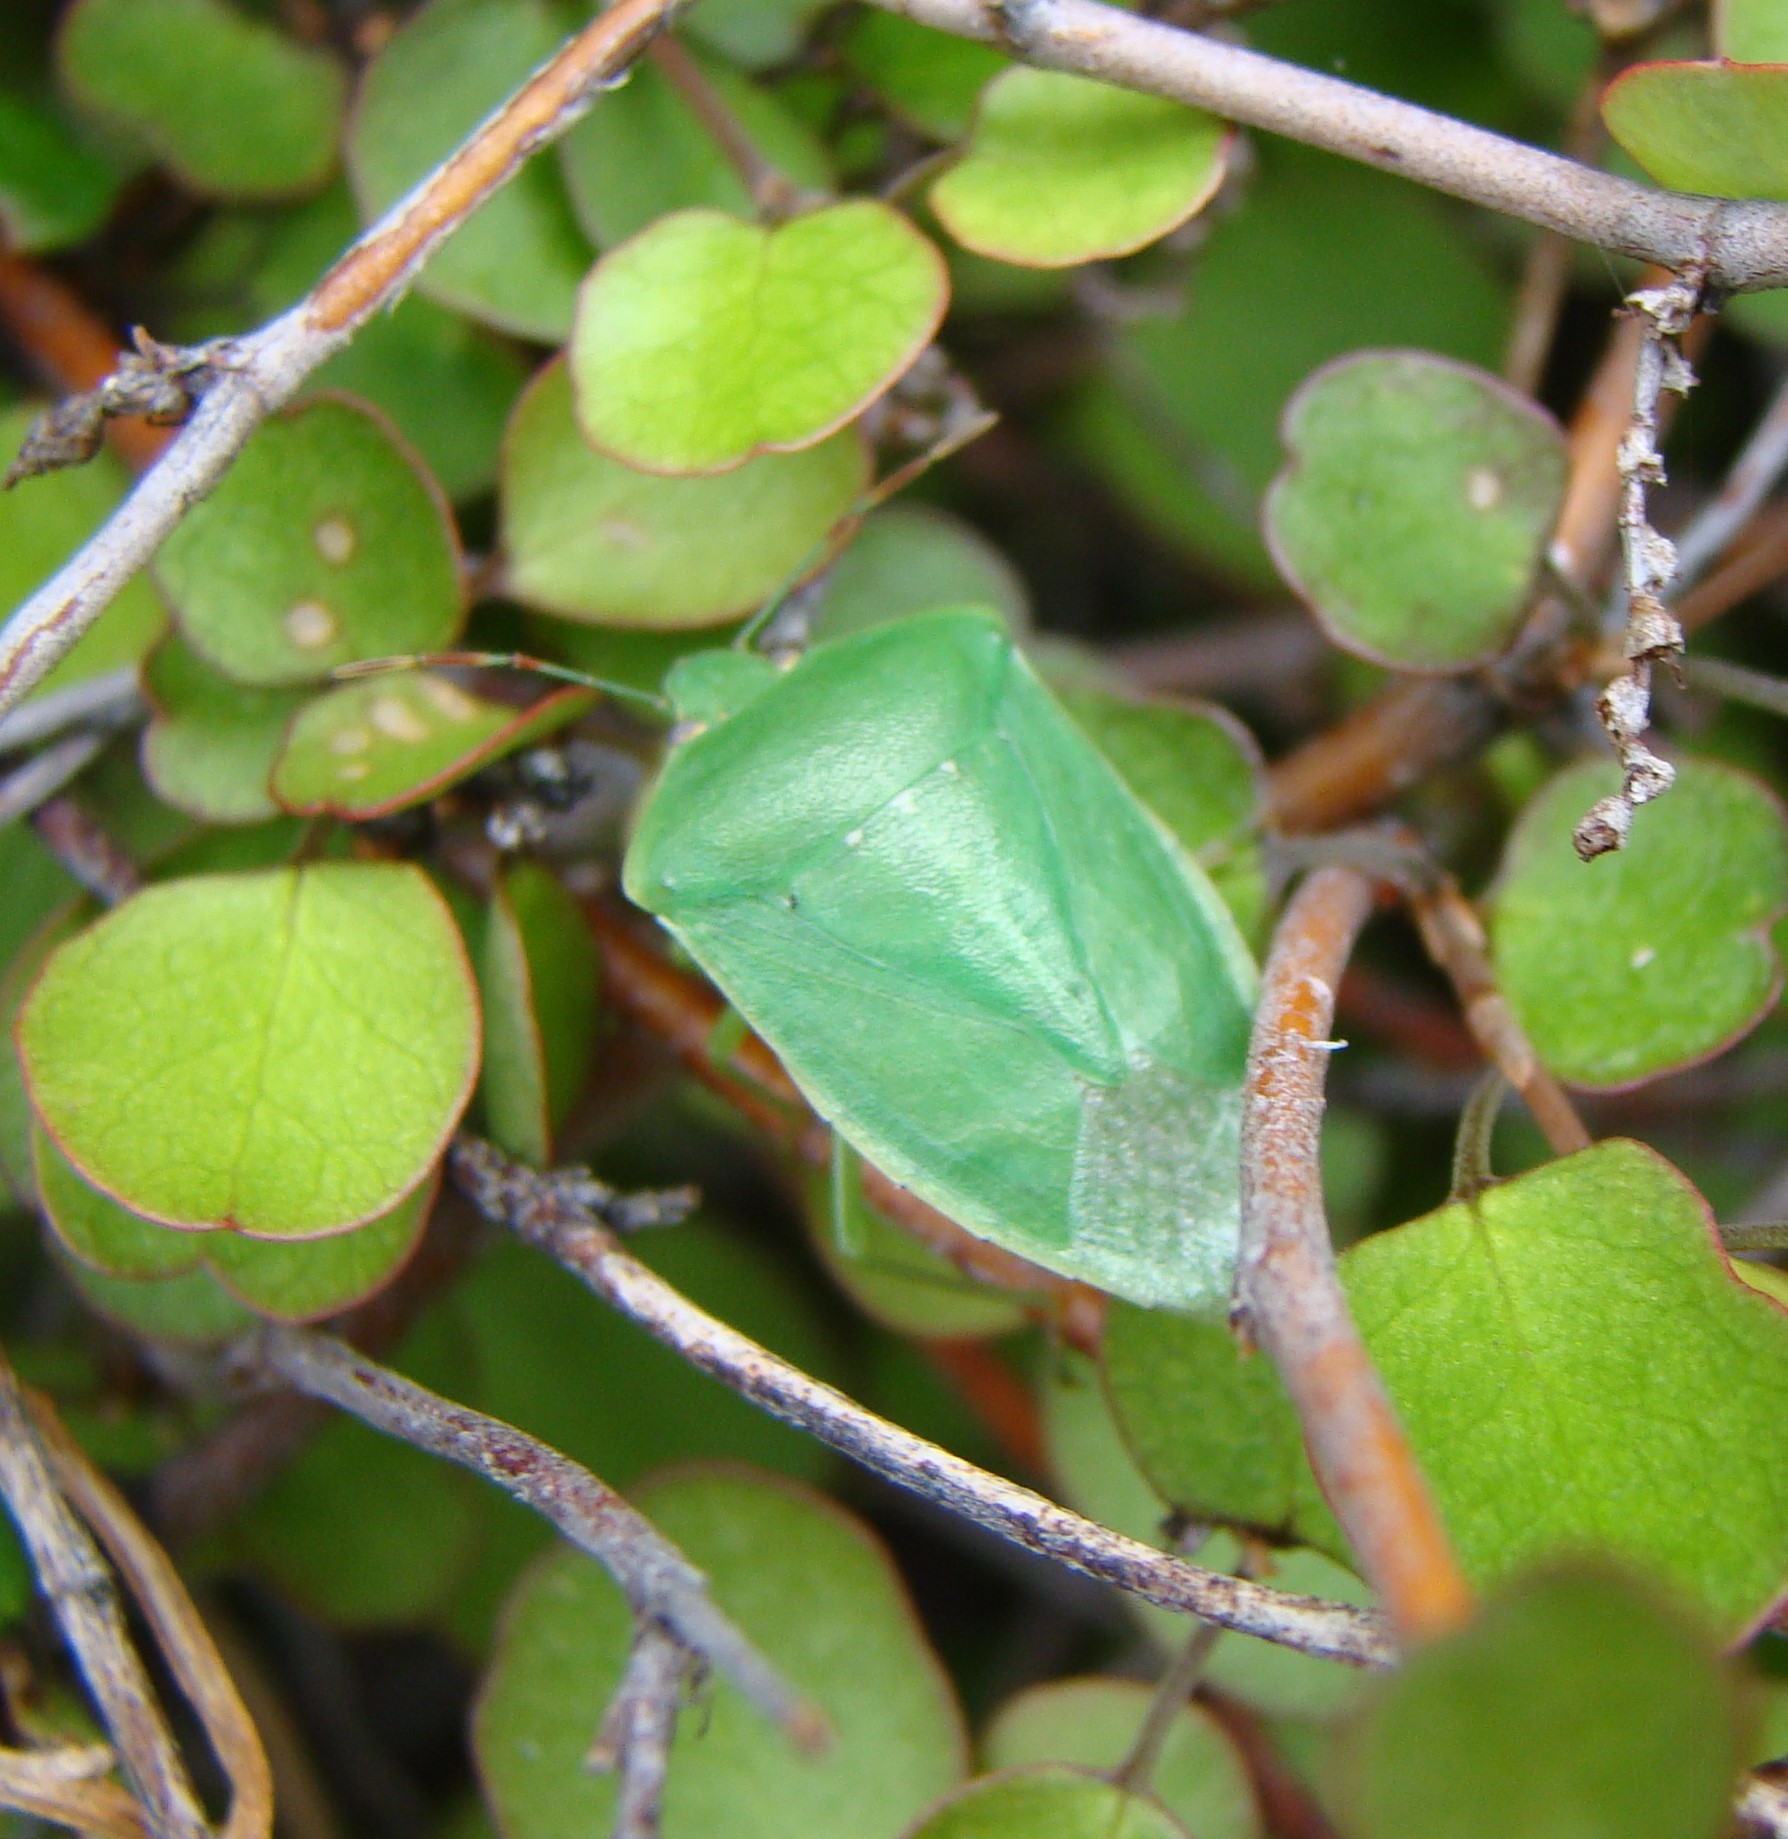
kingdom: Animalia
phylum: Arthropoda
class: Insecta
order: Hemiptera
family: Pentatomidae
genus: Nezara
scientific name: Nezara viridula
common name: Southern green stink bug
